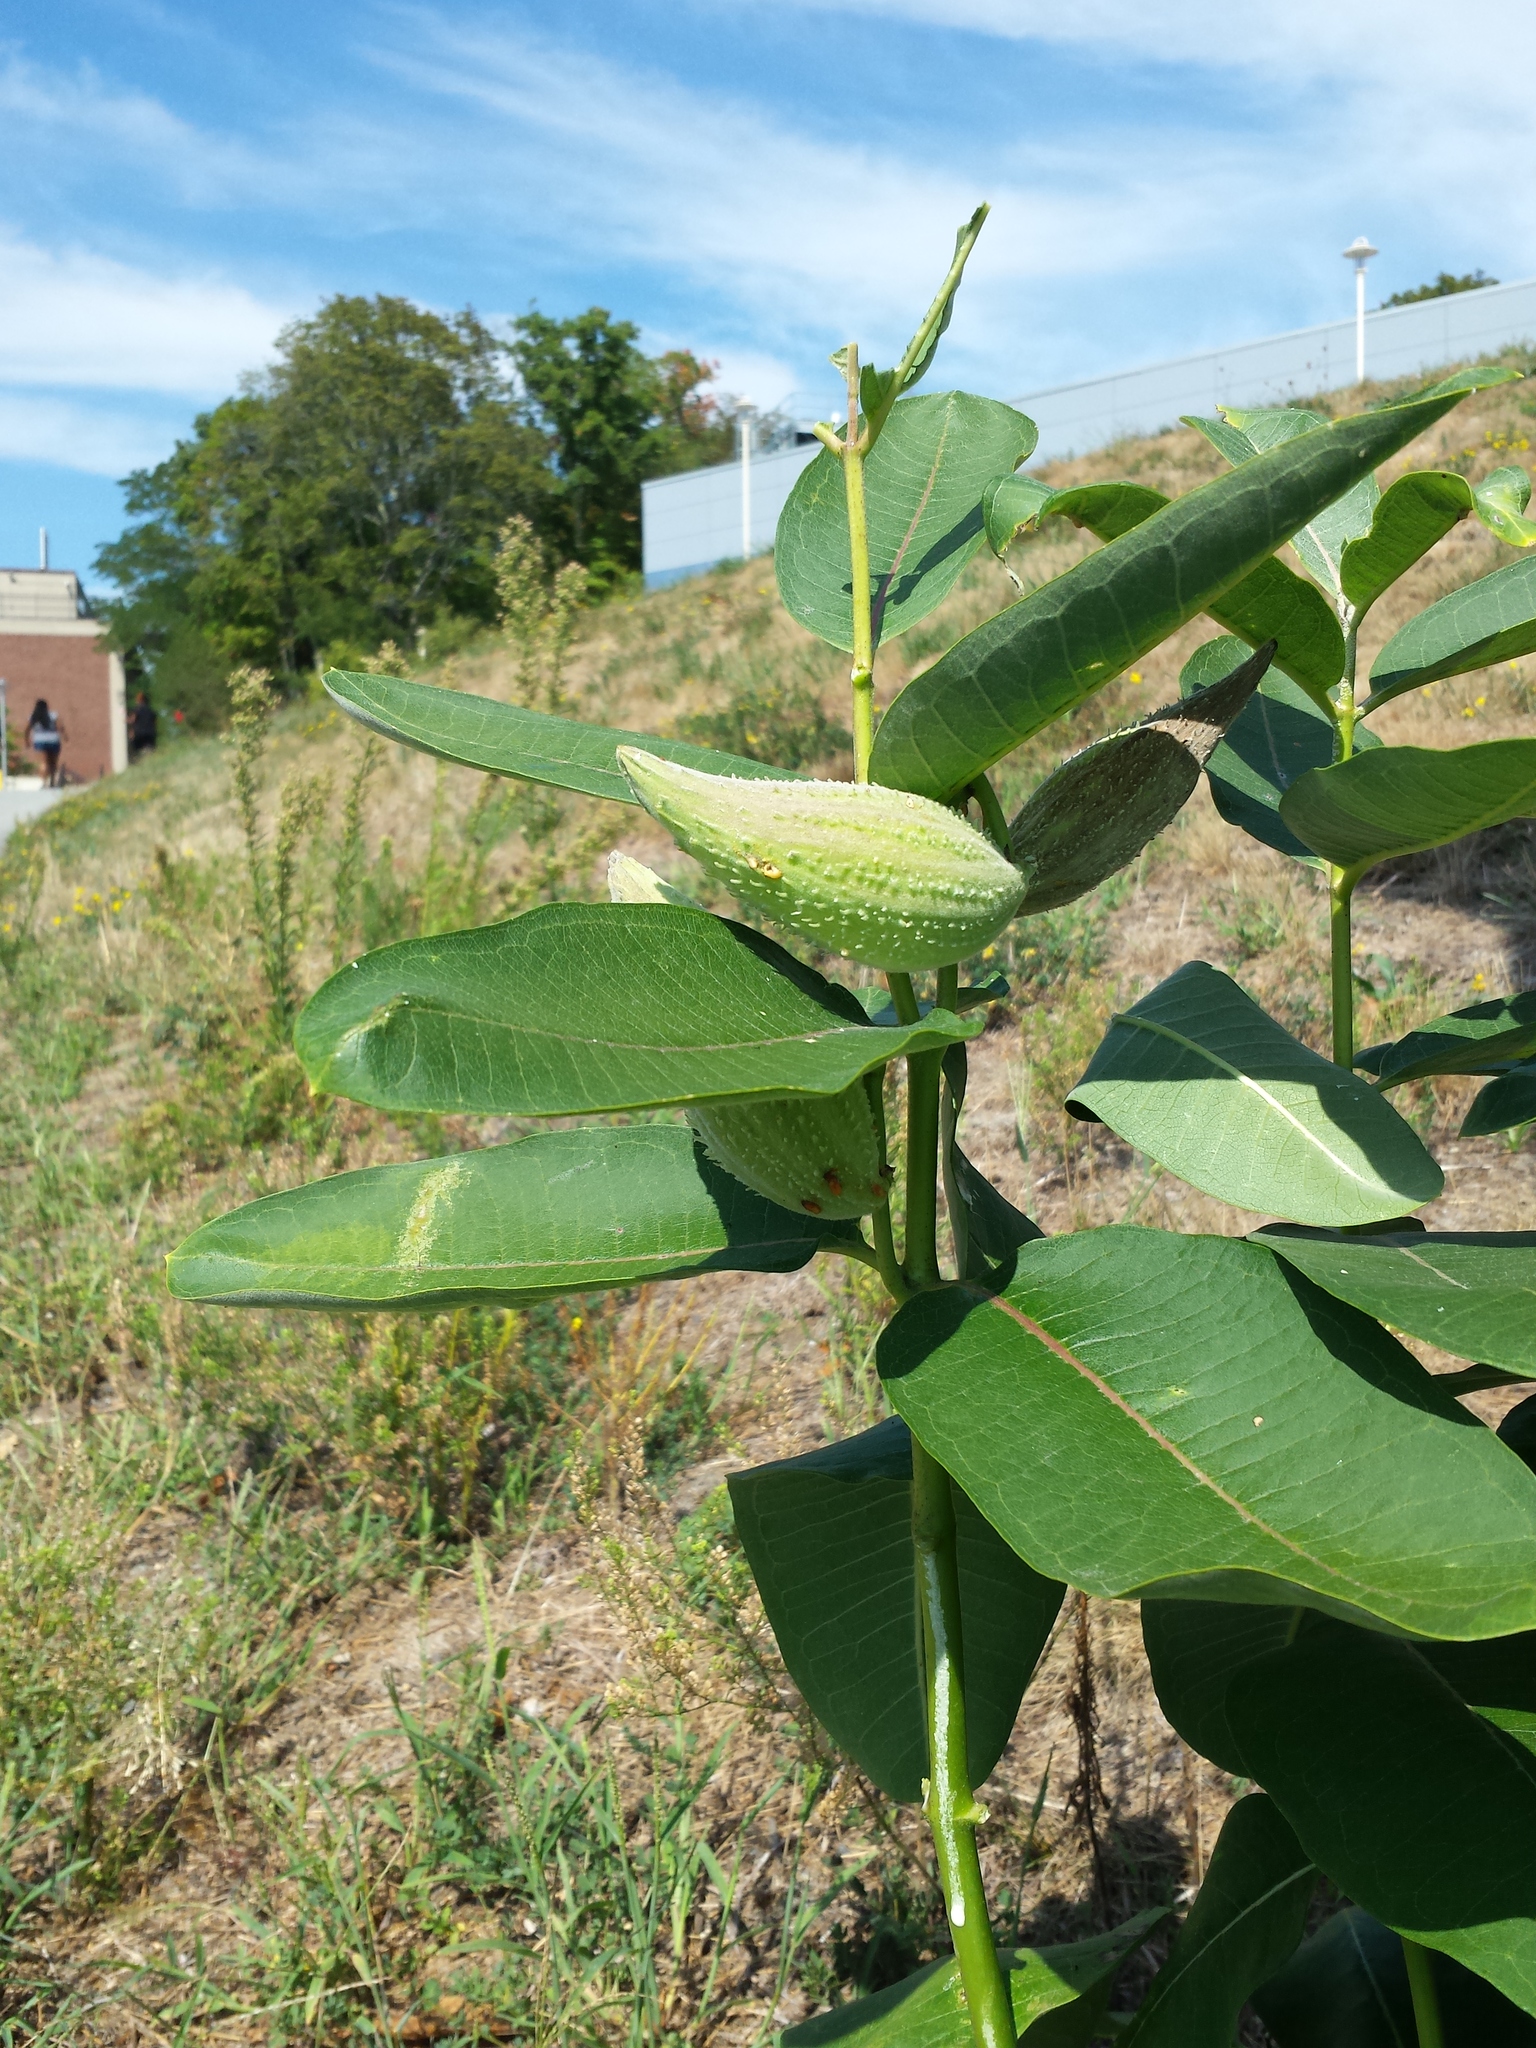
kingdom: Plantae
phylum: Tracheophyta
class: Magnoliopsida
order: Gentianales
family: Apocynaceae
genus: Asclepias
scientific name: Asclepias syriaca
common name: Common milkweed
